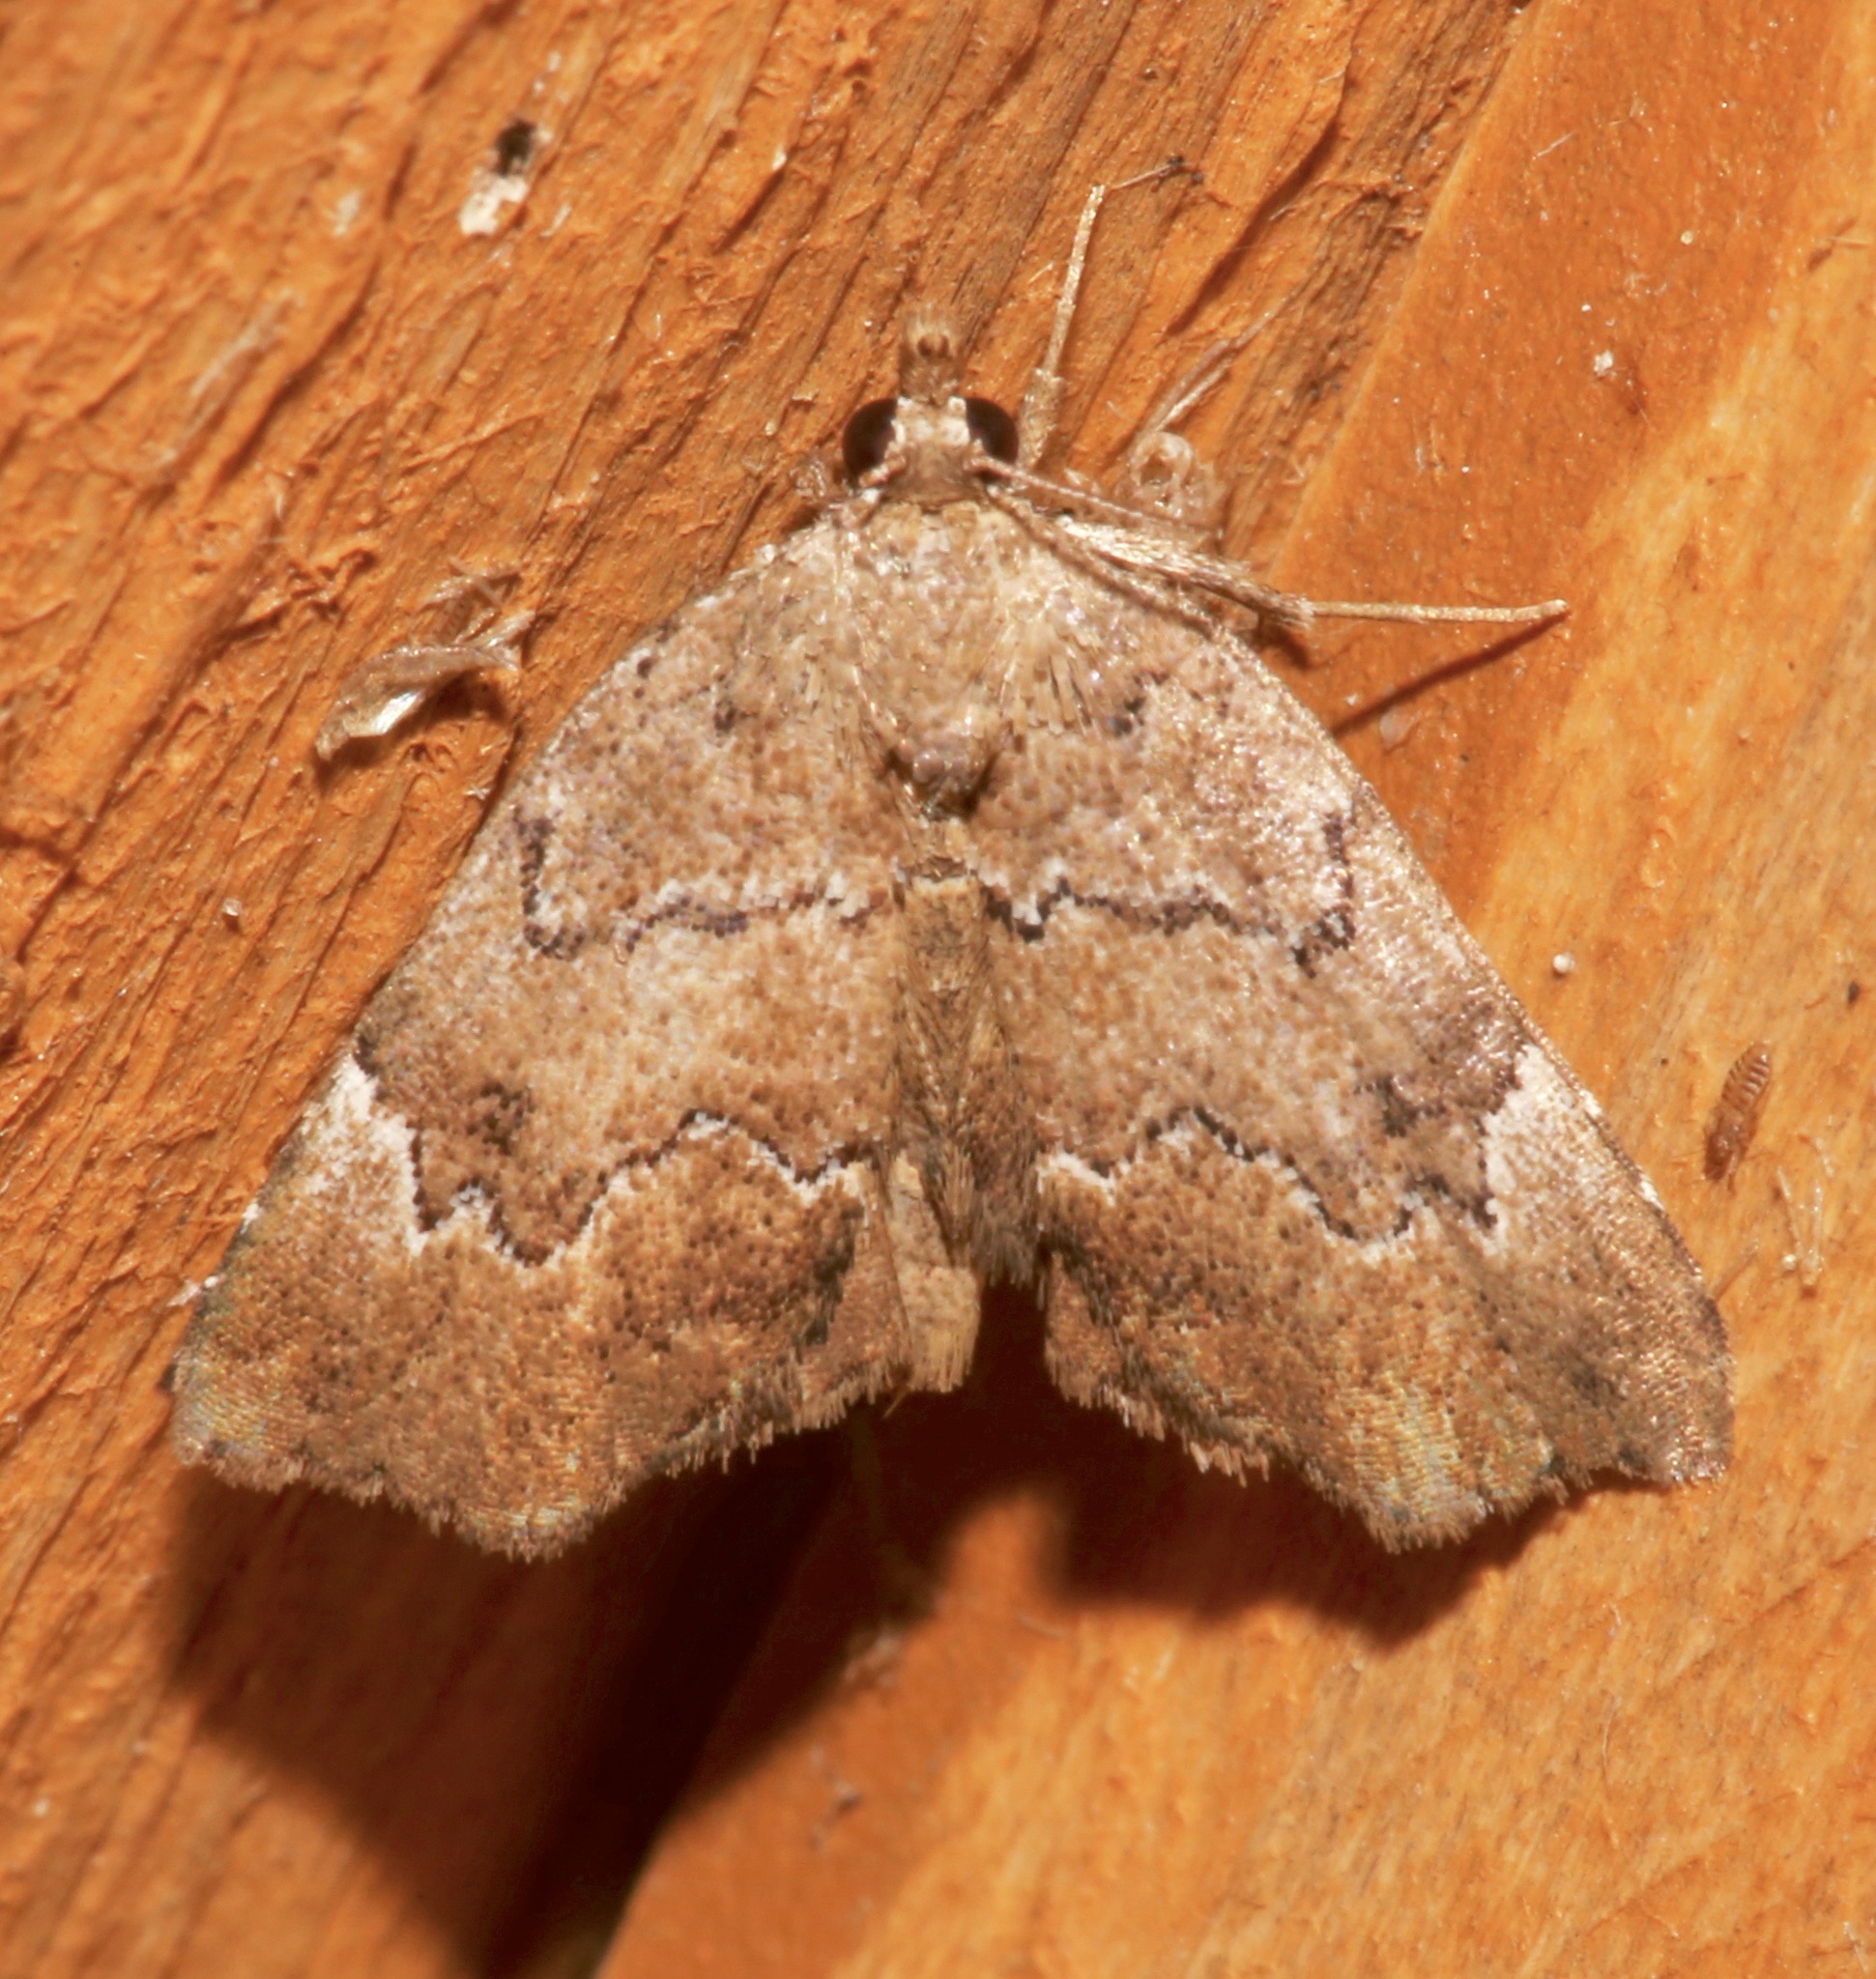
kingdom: Animalia
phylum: Arthropoda
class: Insecta
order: Lepidoptera
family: Erebidae
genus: Cutina
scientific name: Cutina aluticolor
